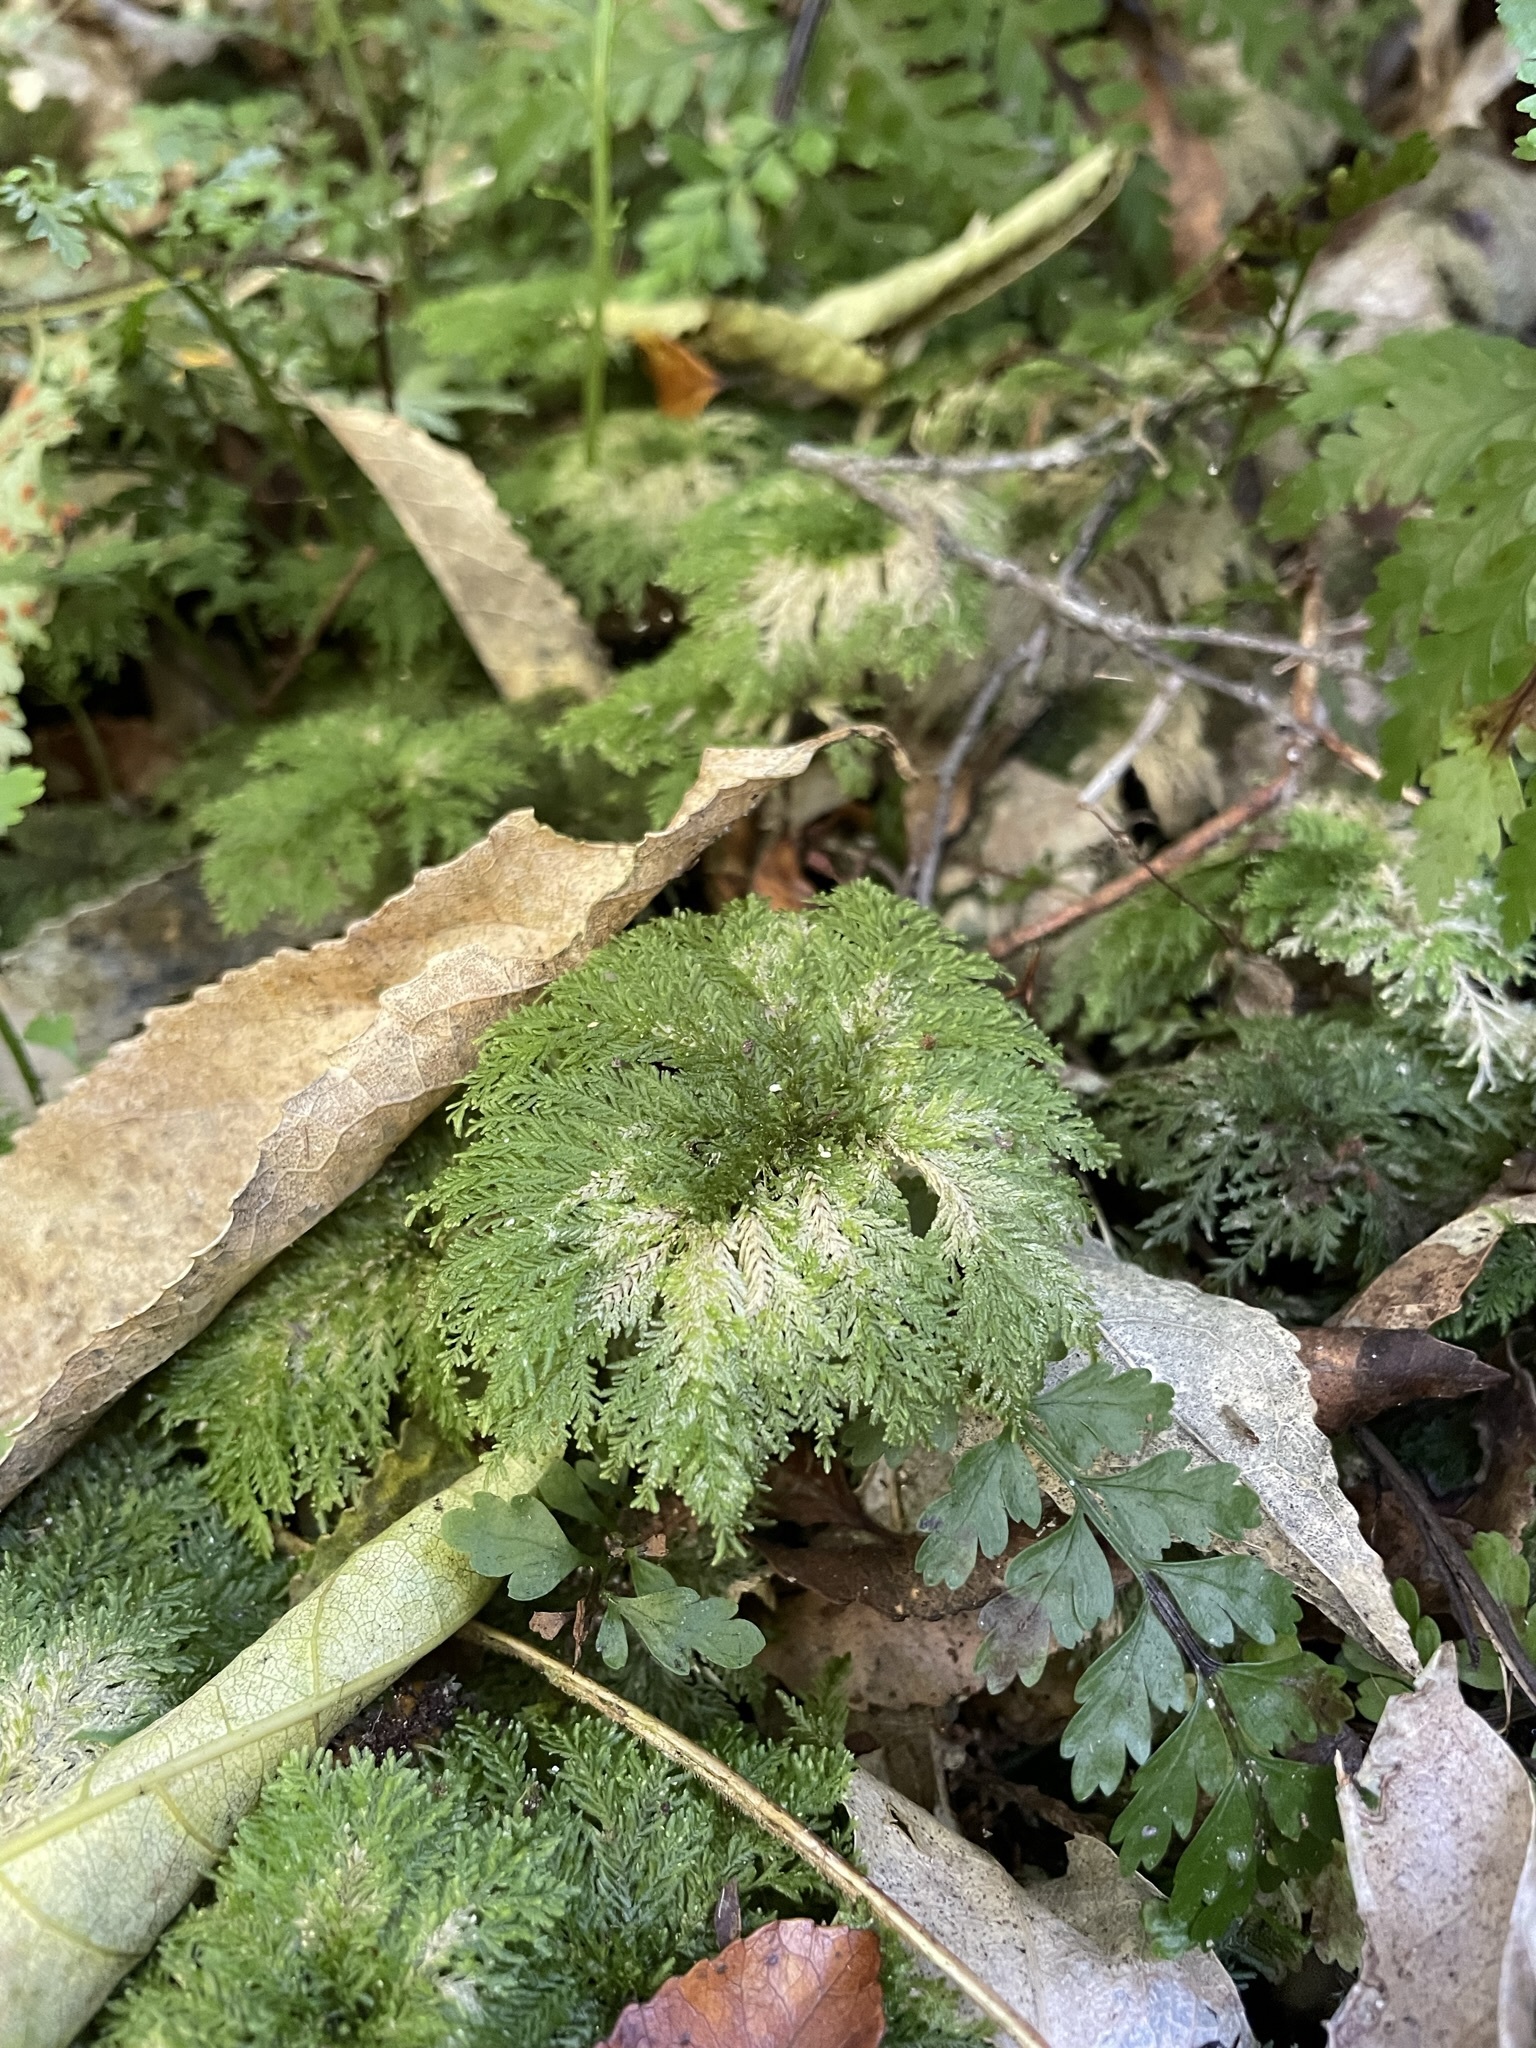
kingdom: Plantae
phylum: Bryophyta
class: Bryopsida
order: Hypopterygiales
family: Hypopterygiaceae
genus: Dendrohypopterygium
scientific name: Dendrohypopterygium filiculiforme
